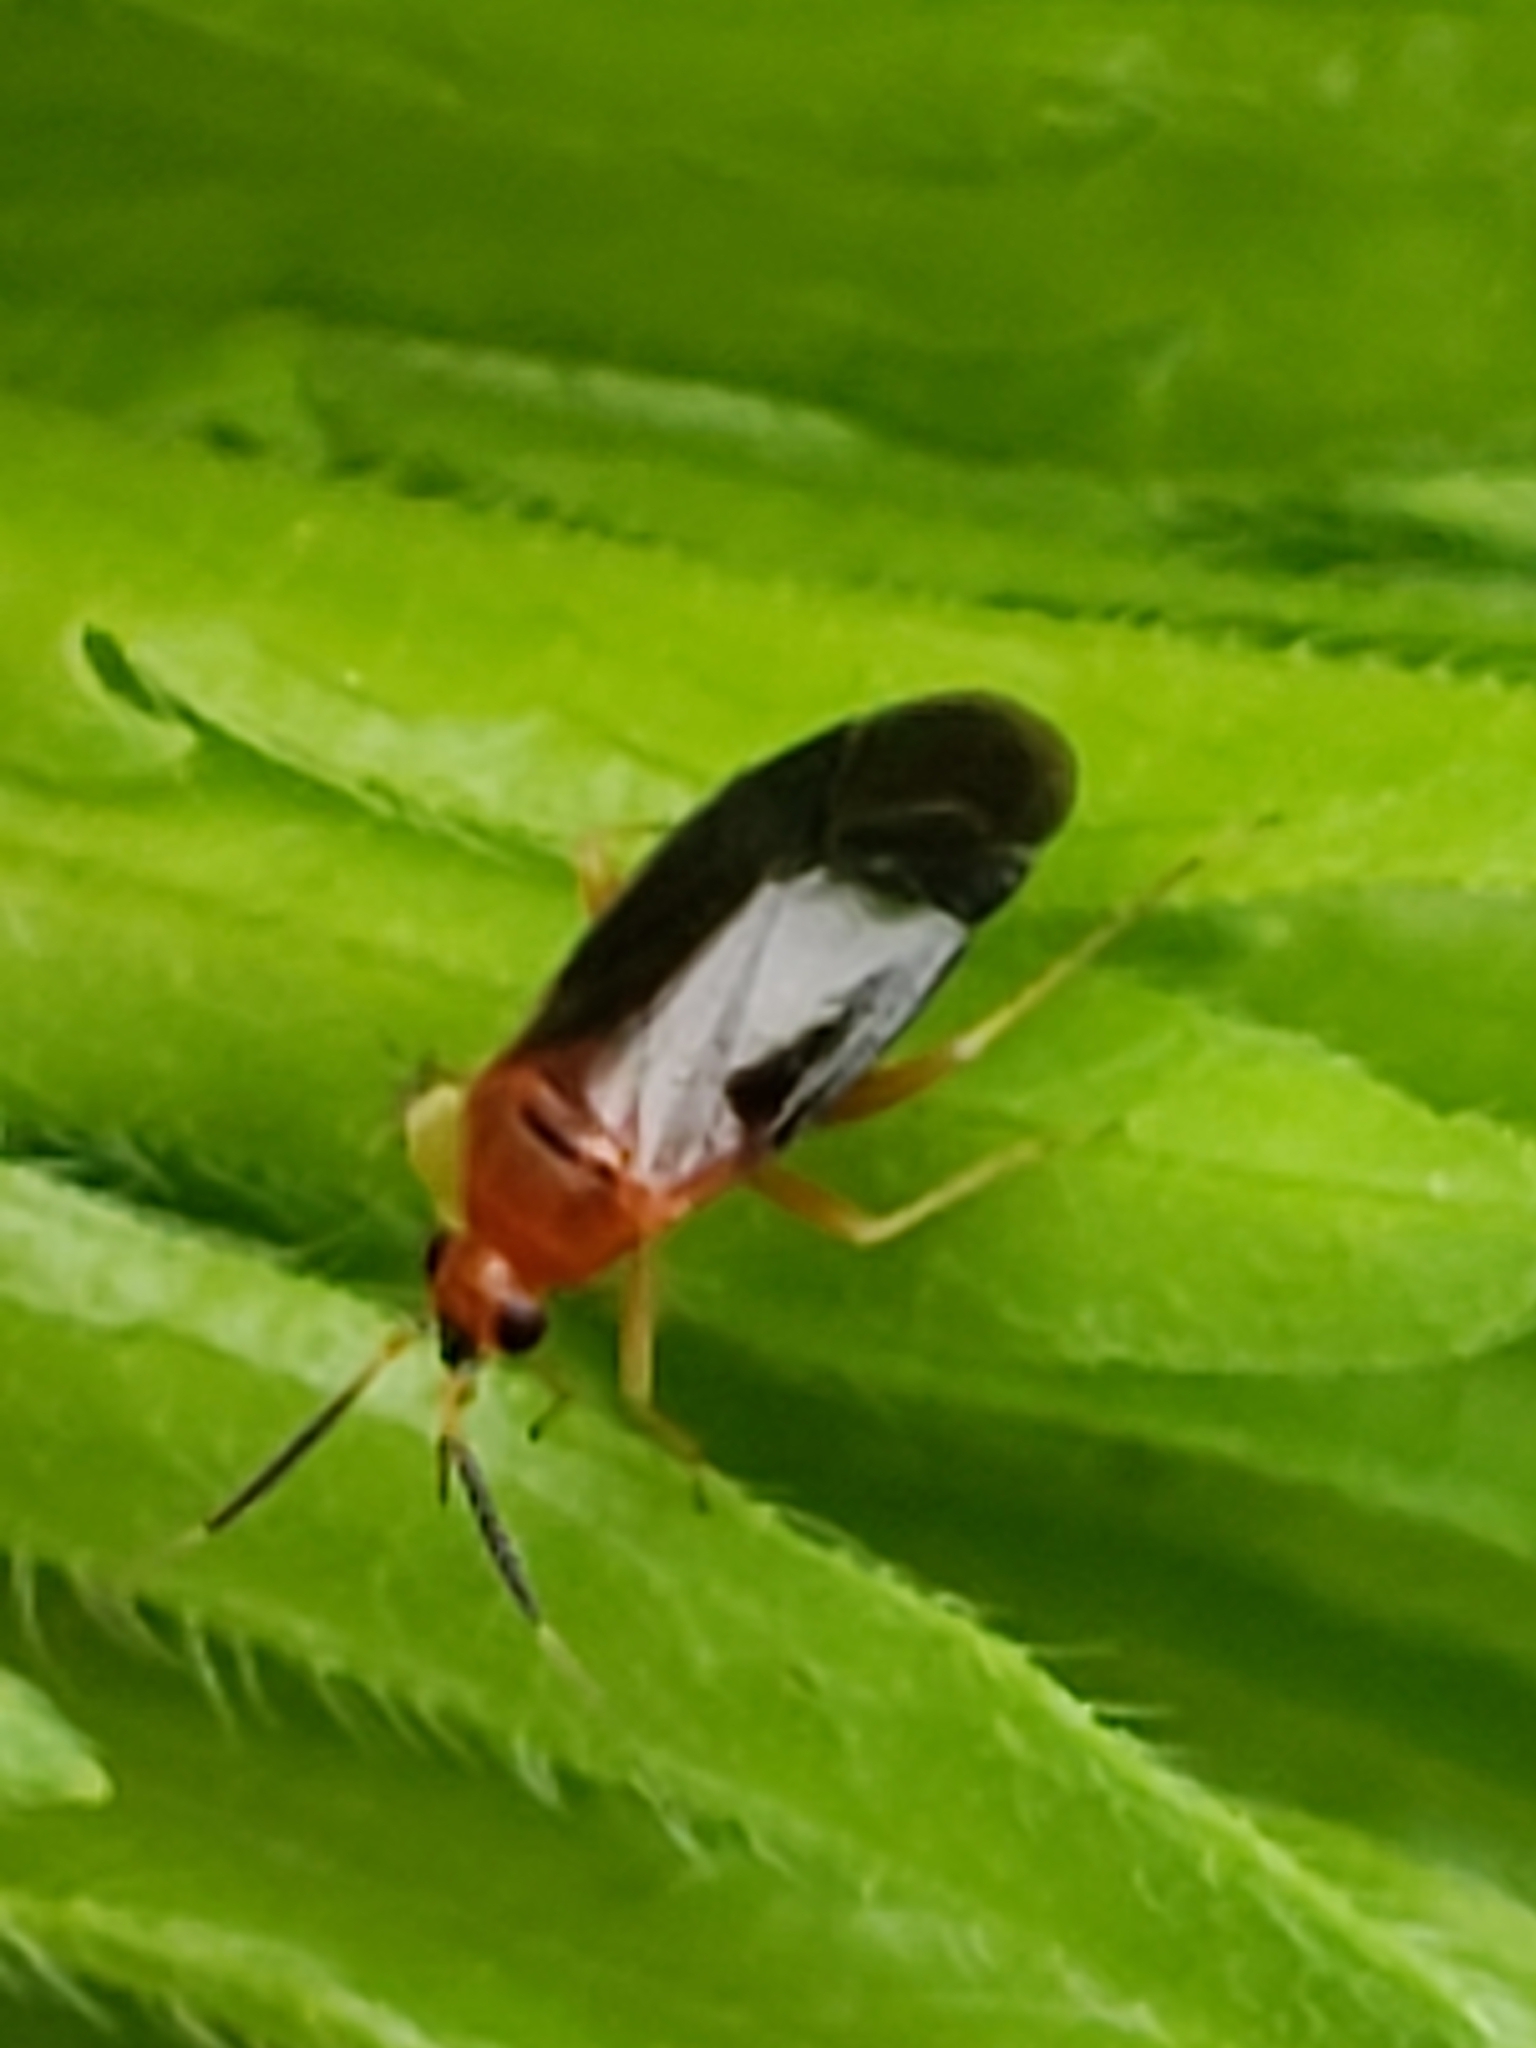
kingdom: Animalia
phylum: Arthropoda
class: Insecta
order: Hemiptera
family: Miridae
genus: Rhinocapsus
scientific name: Rhinocapsus vanduzeei
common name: Azalea plant bug
